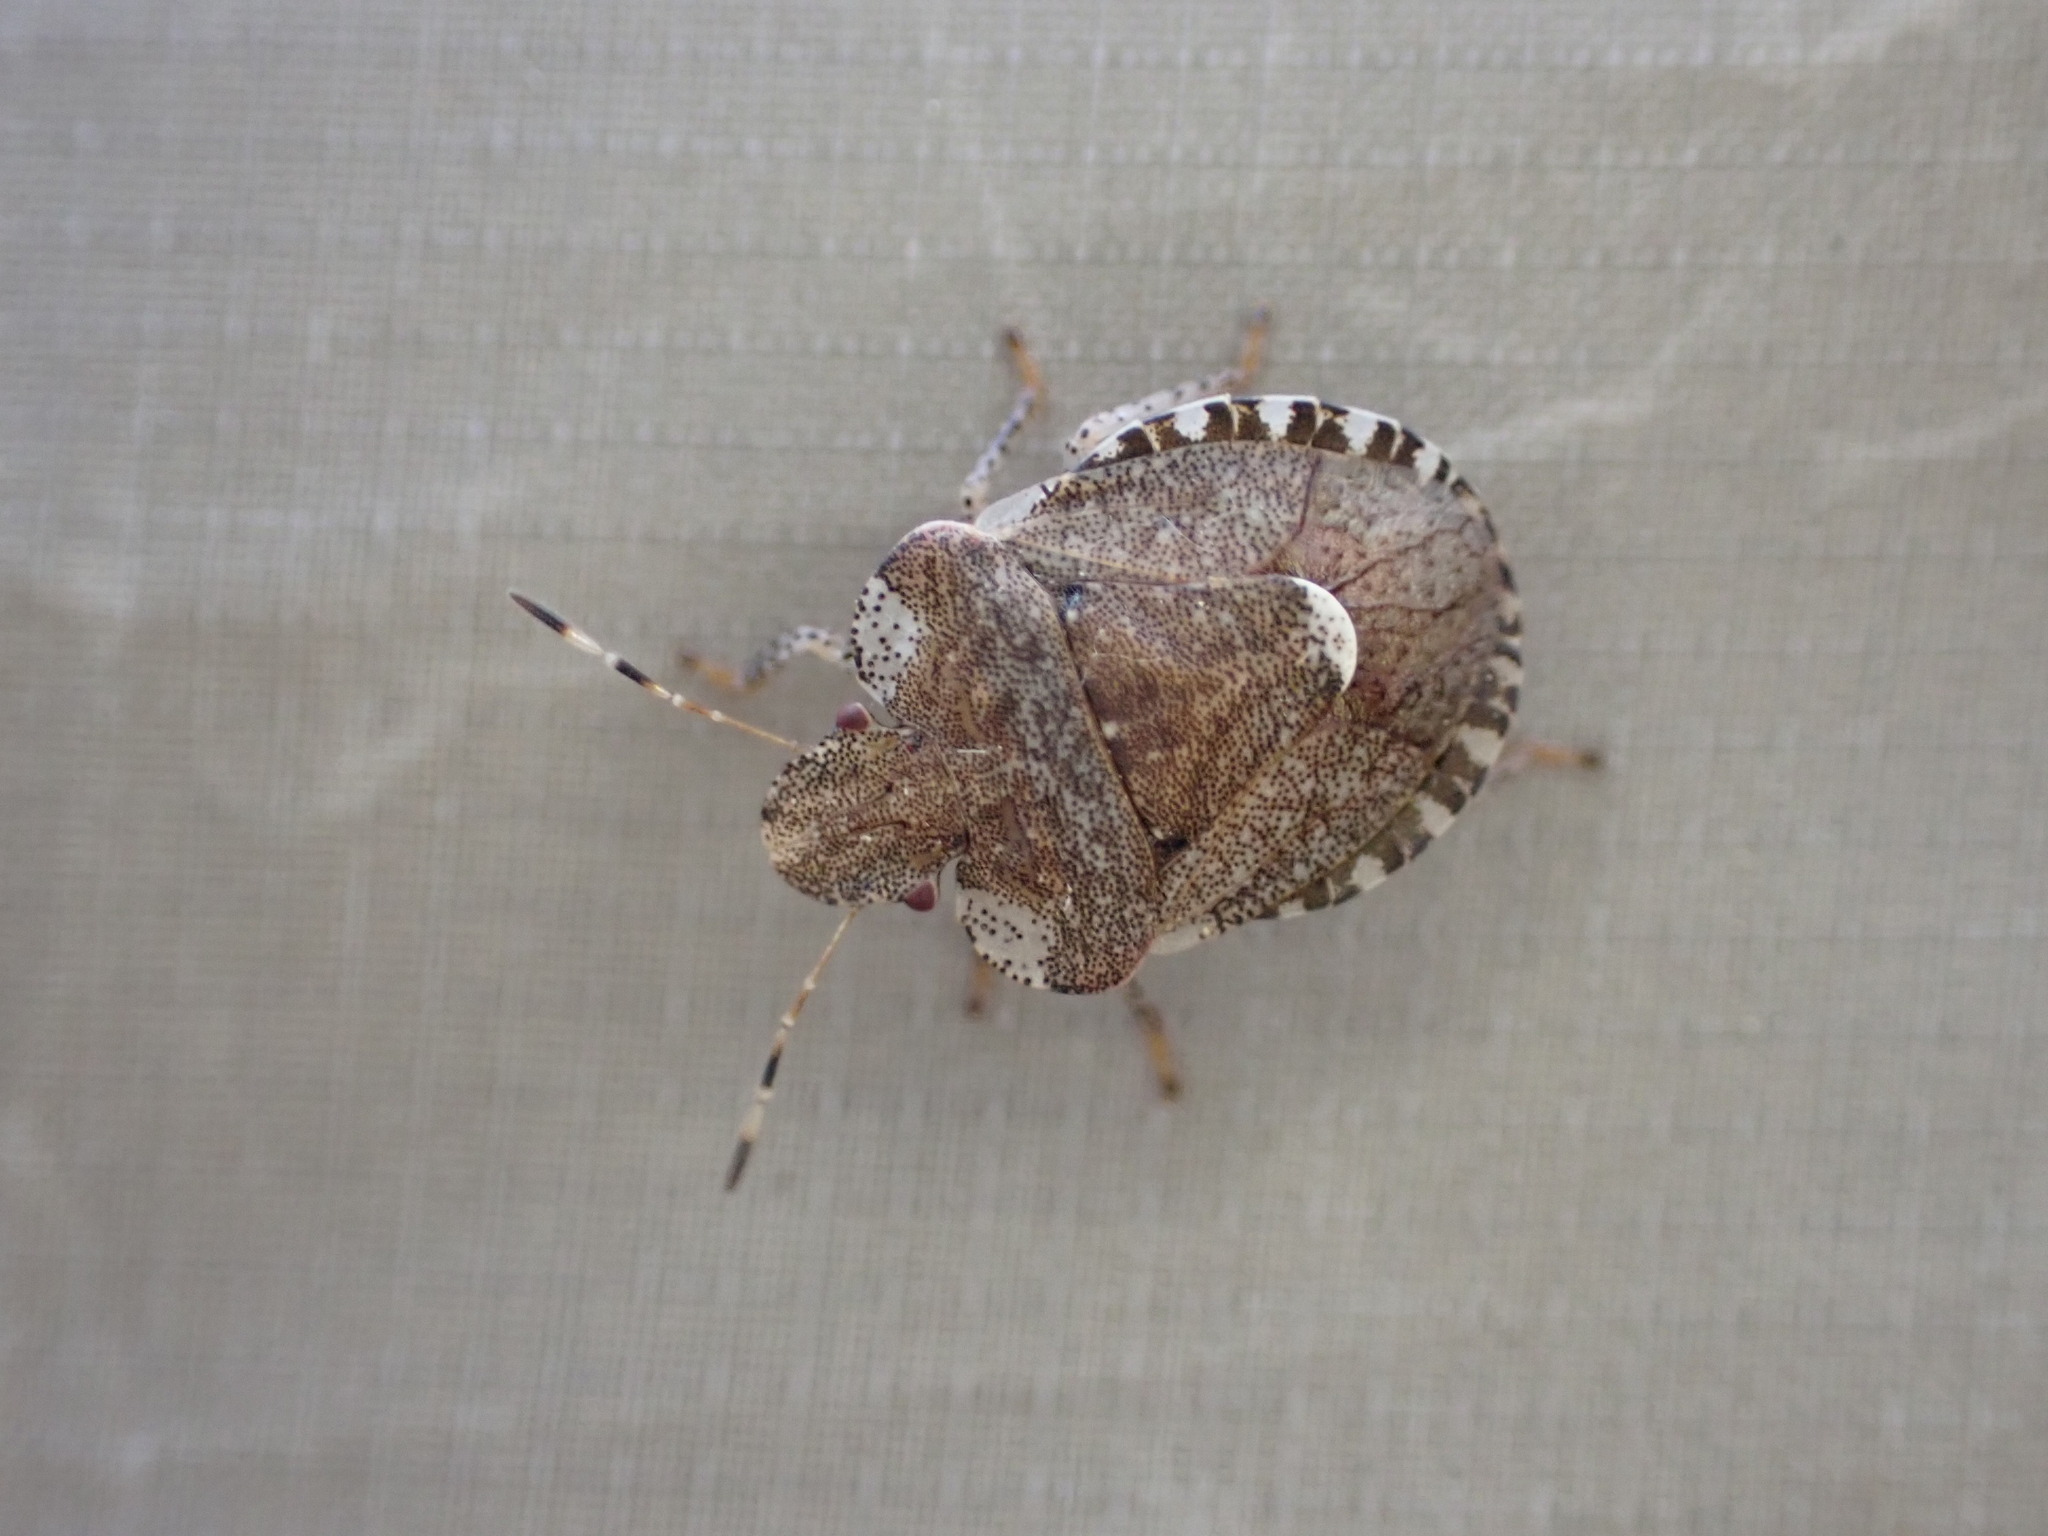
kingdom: Animalia
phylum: Arthropoda
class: Insecta
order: Hemiptera
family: Pentatomidae
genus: Dyroderes
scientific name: Dyroderes umbraculatus
